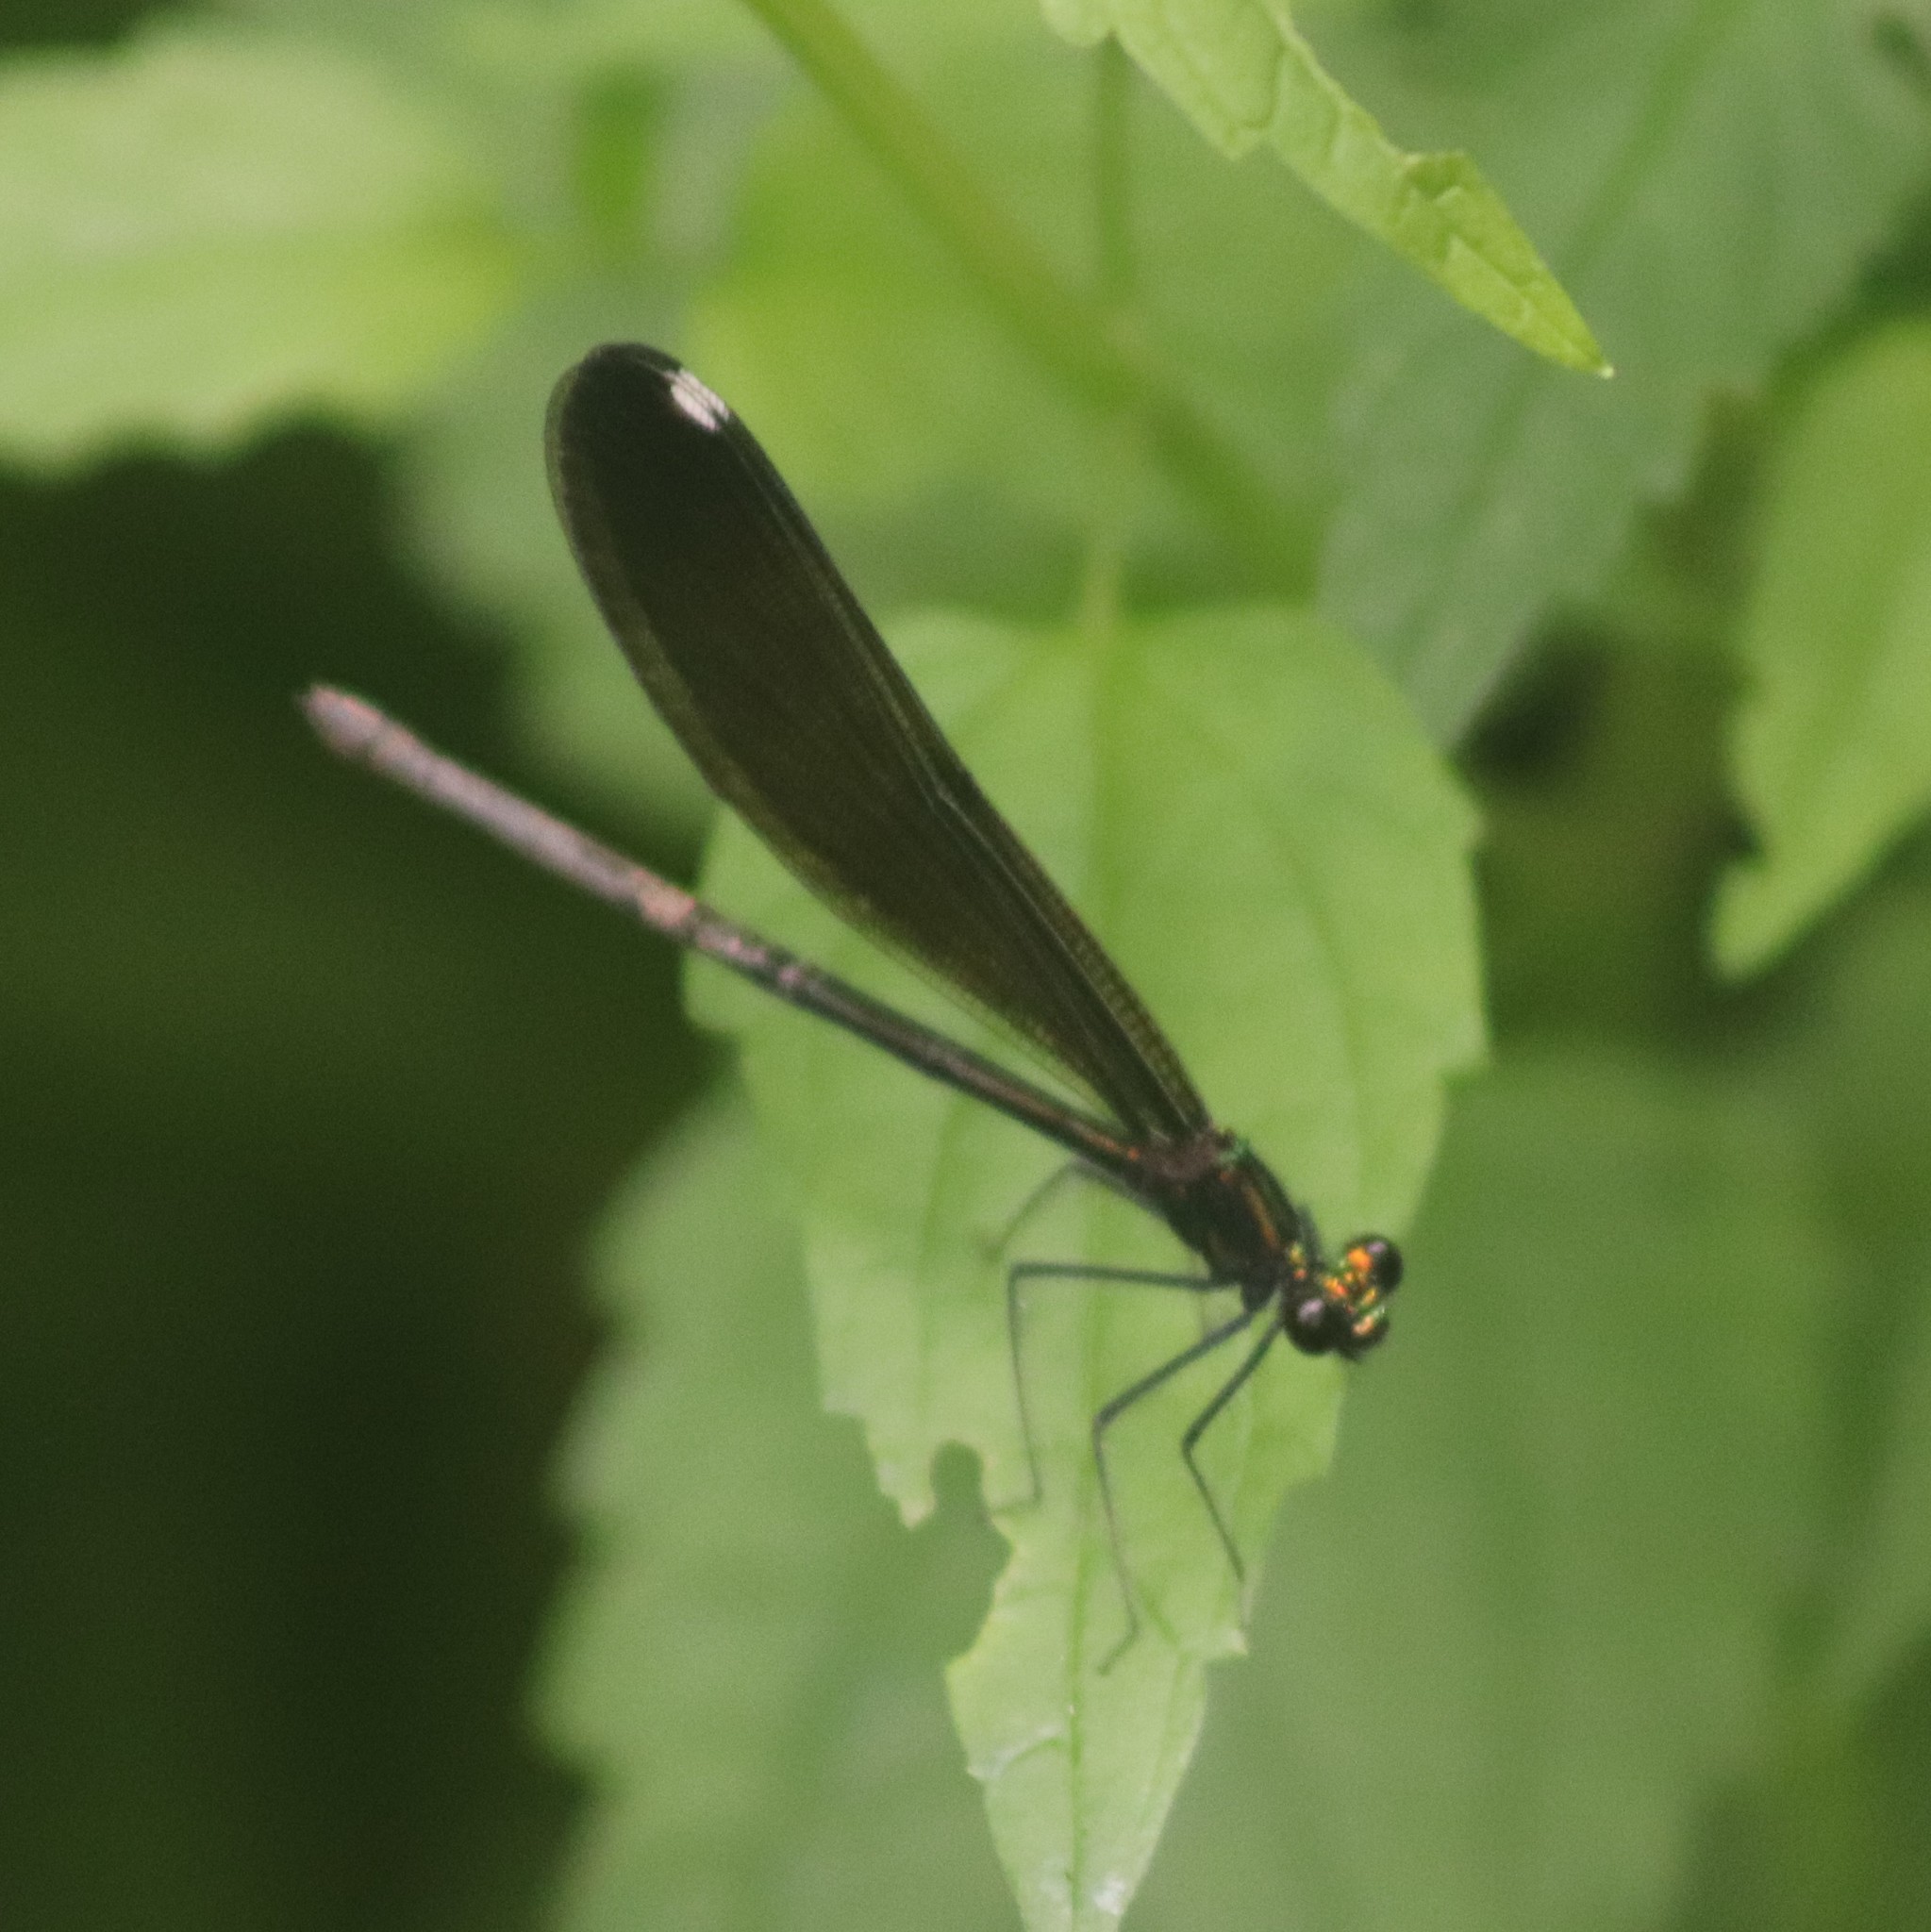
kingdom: Animalia
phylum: Arthropoda
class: Insecta
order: Odonata
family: Calopterygidae
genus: Calopteryx
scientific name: Calopteryx maculata
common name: Ebony jewelwing
